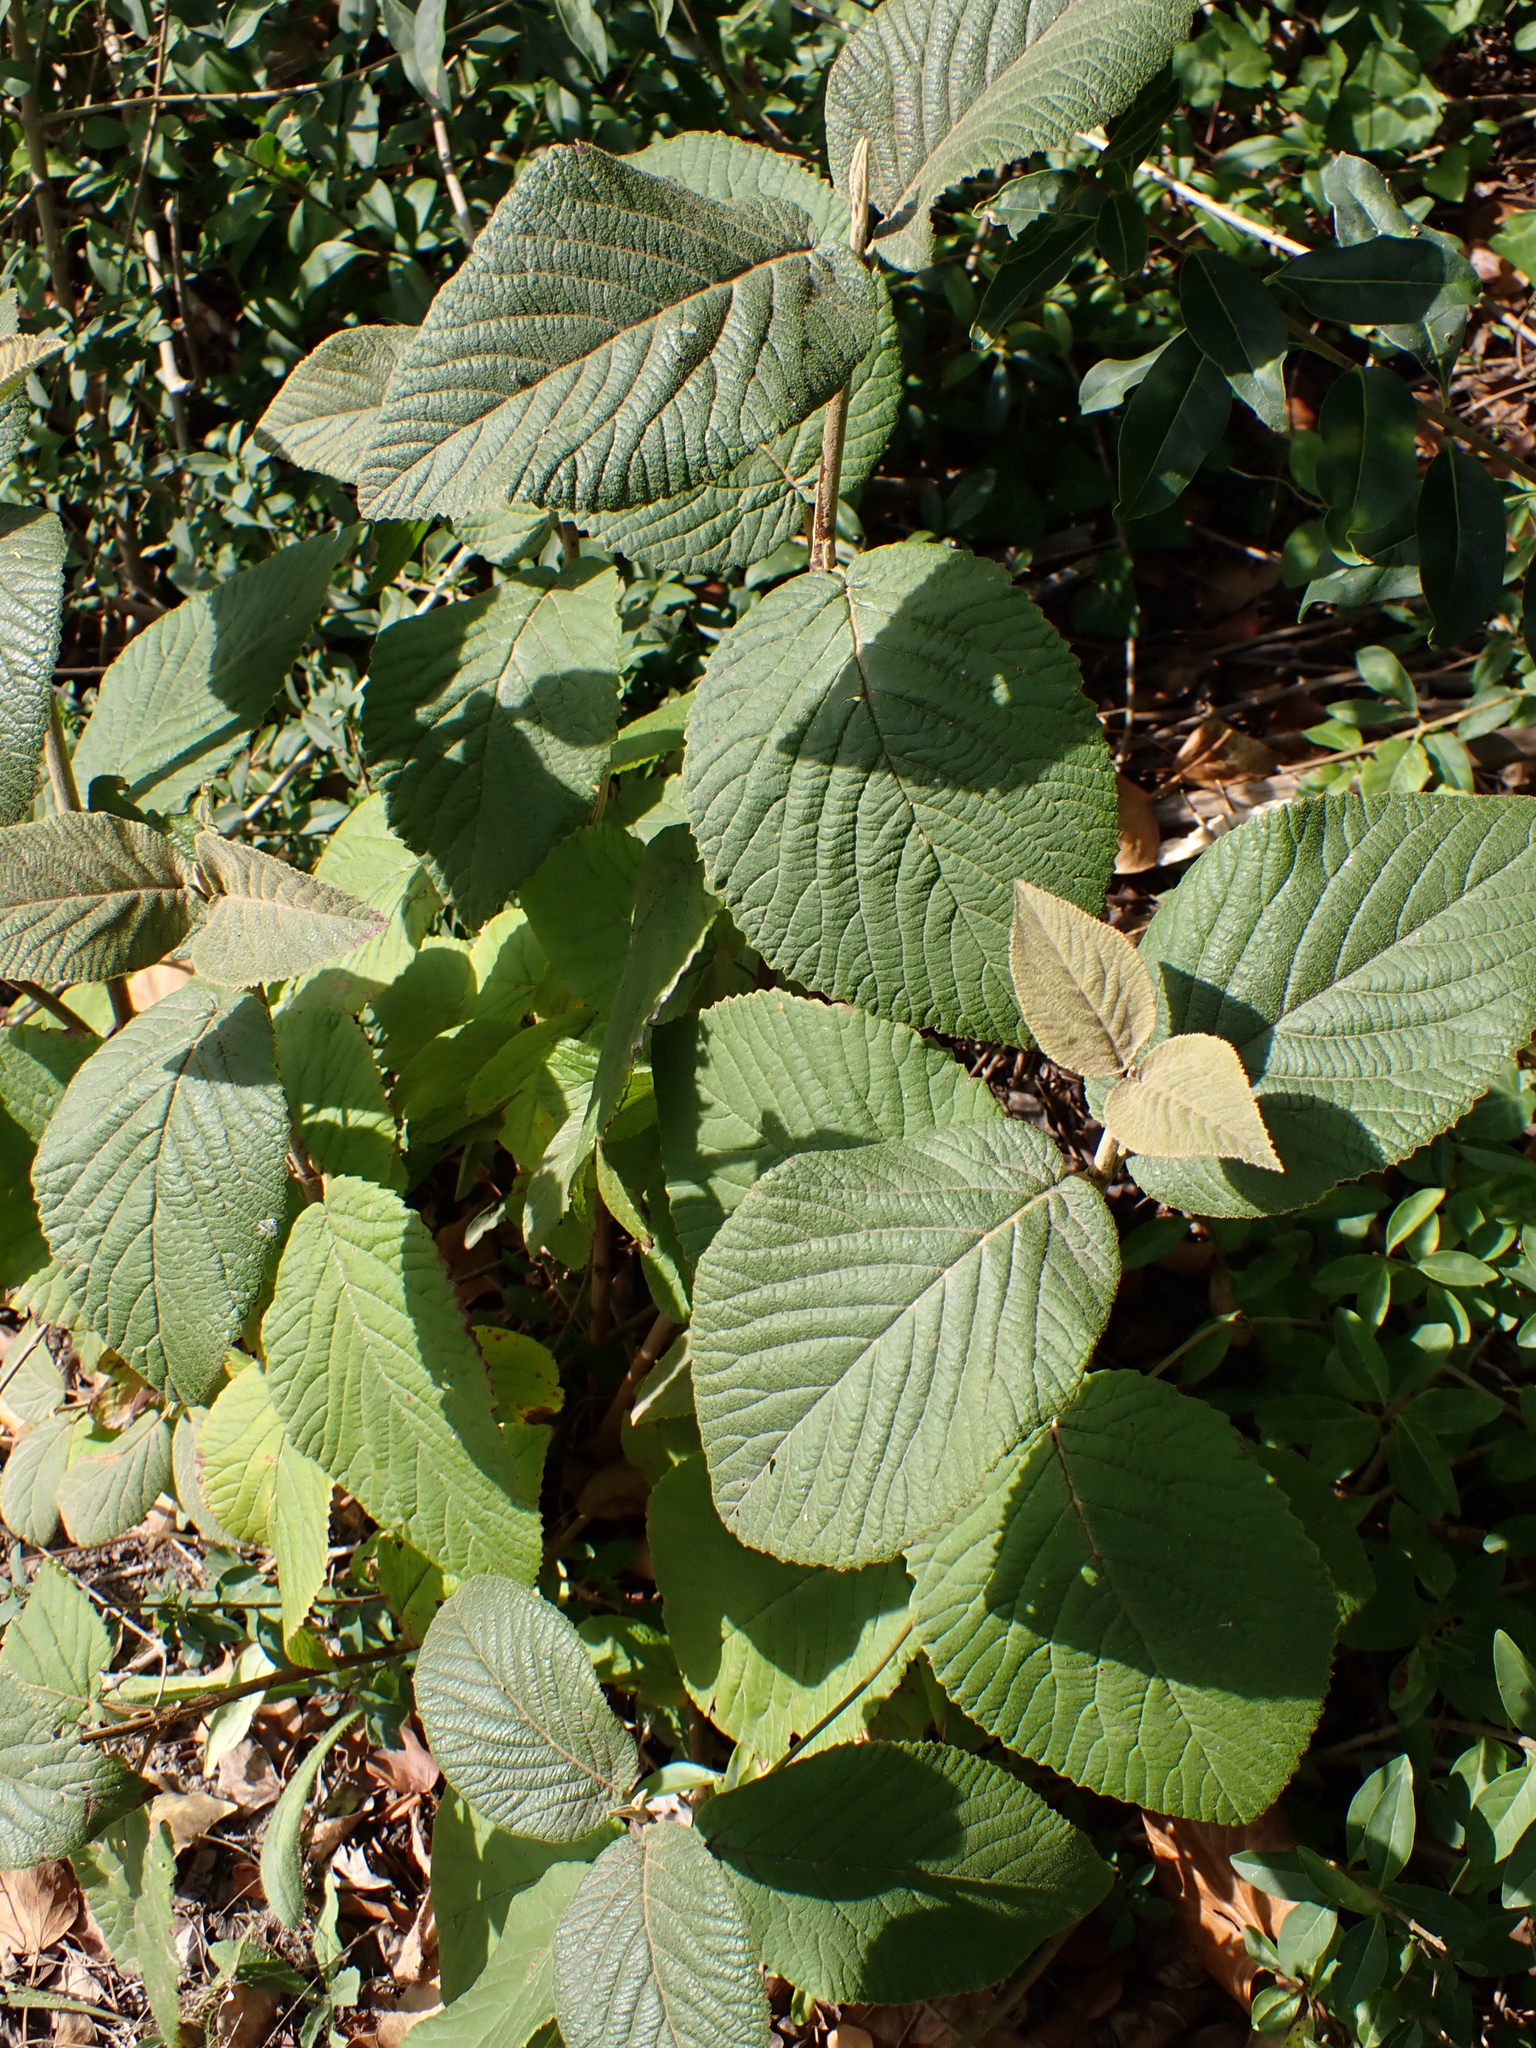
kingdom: Plantae
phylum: Tracheophyta
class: Magnoliopsida
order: Dipsacales
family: Viburnaceae
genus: Viburnum
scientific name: Viburnum lantana
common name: Wayfaring tree
